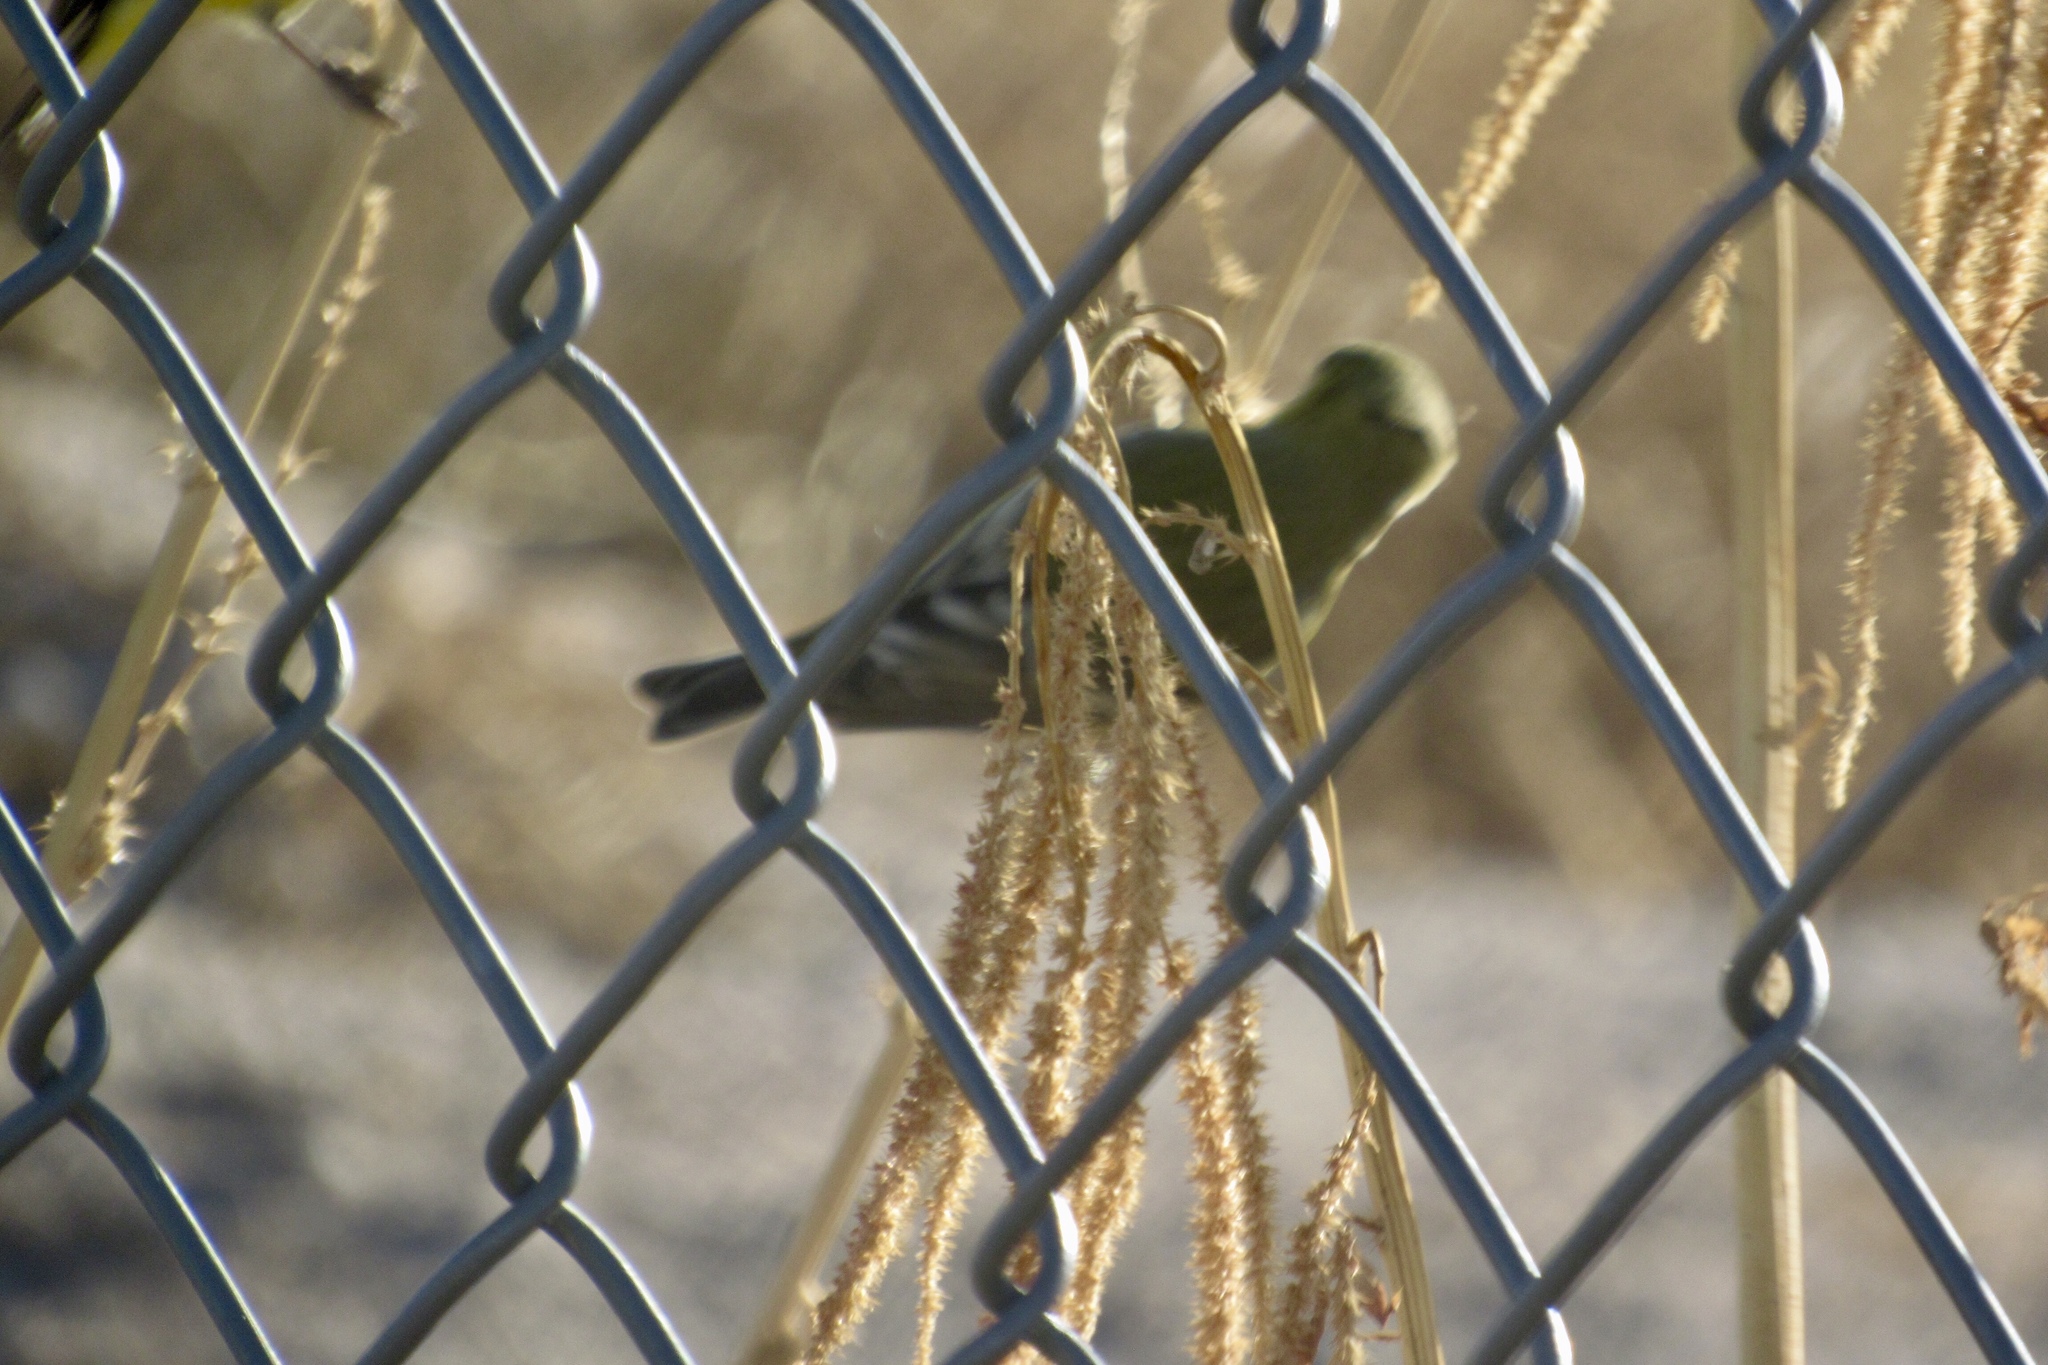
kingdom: Animalia
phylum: Chordata
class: Aves
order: Passeriformes
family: Fringillidae
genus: Spinus
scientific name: Spinus psaltria
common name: Lesser goldfinch
